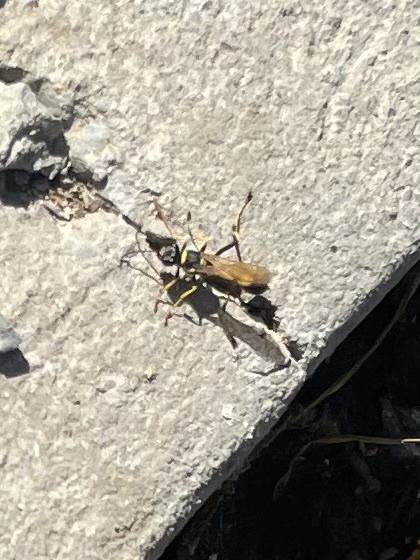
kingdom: Animalia
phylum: Arthropoda
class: Insecta
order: Hymenoptera
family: Sphecidae
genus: Sceliphron
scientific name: Sceliphron caementarium
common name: Mud dauber
